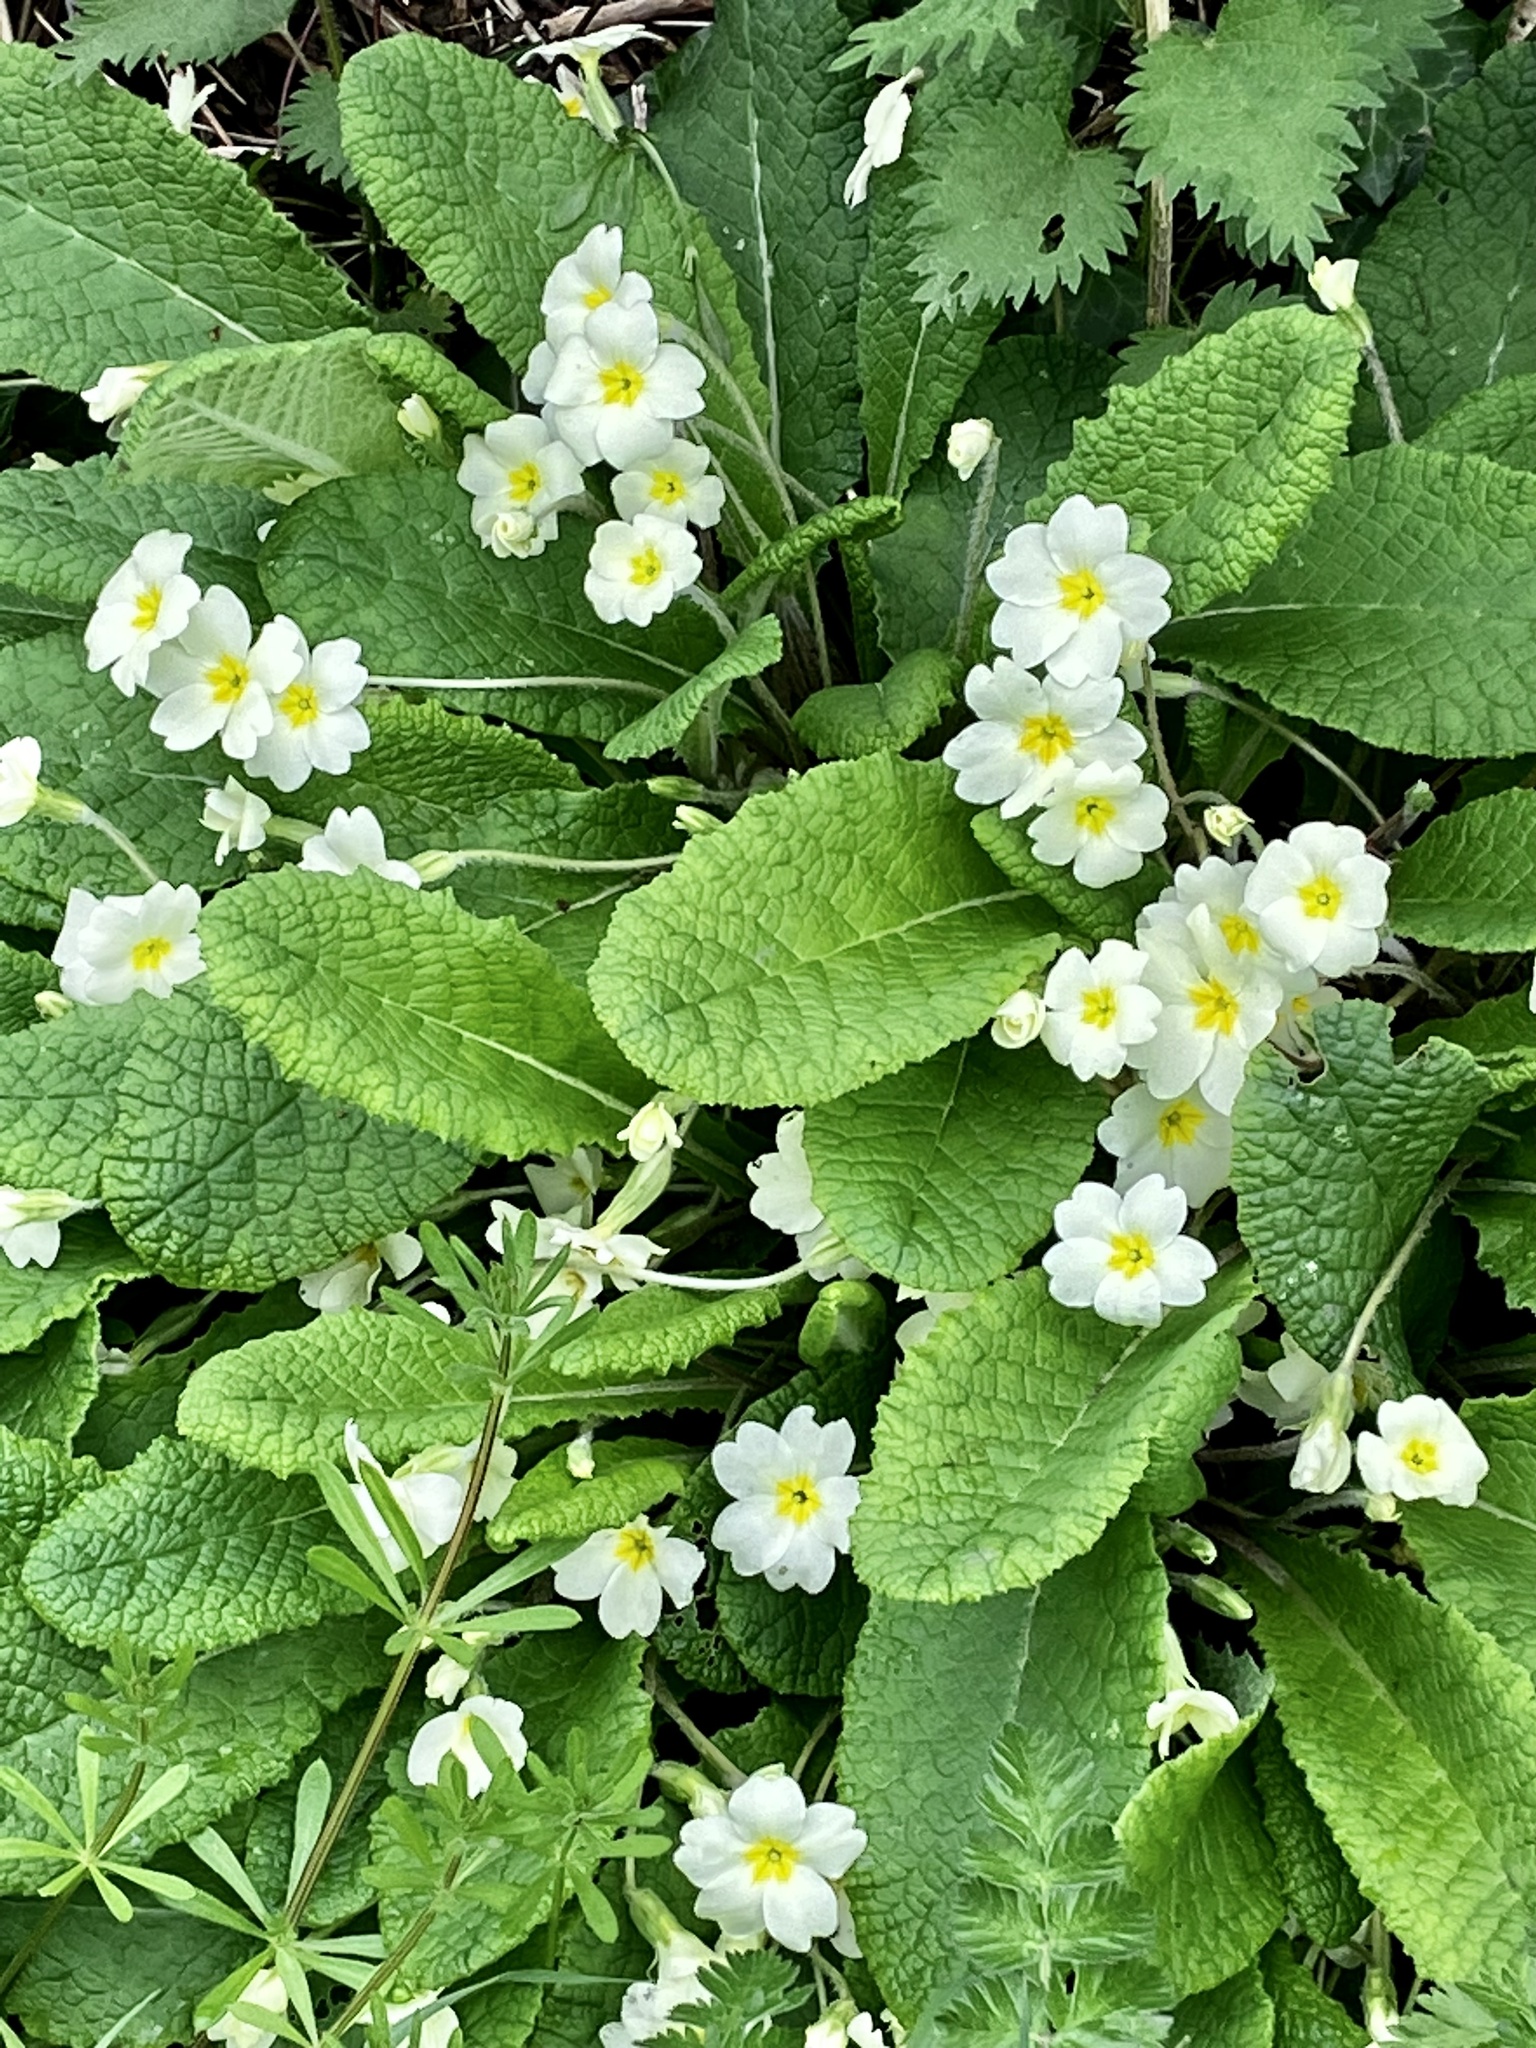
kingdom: Plantae
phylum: Tracheophyta
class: Magnoliopsida
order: Ericales
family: Primulaceae
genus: Primula
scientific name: Primula vulgaris
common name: Primrose
